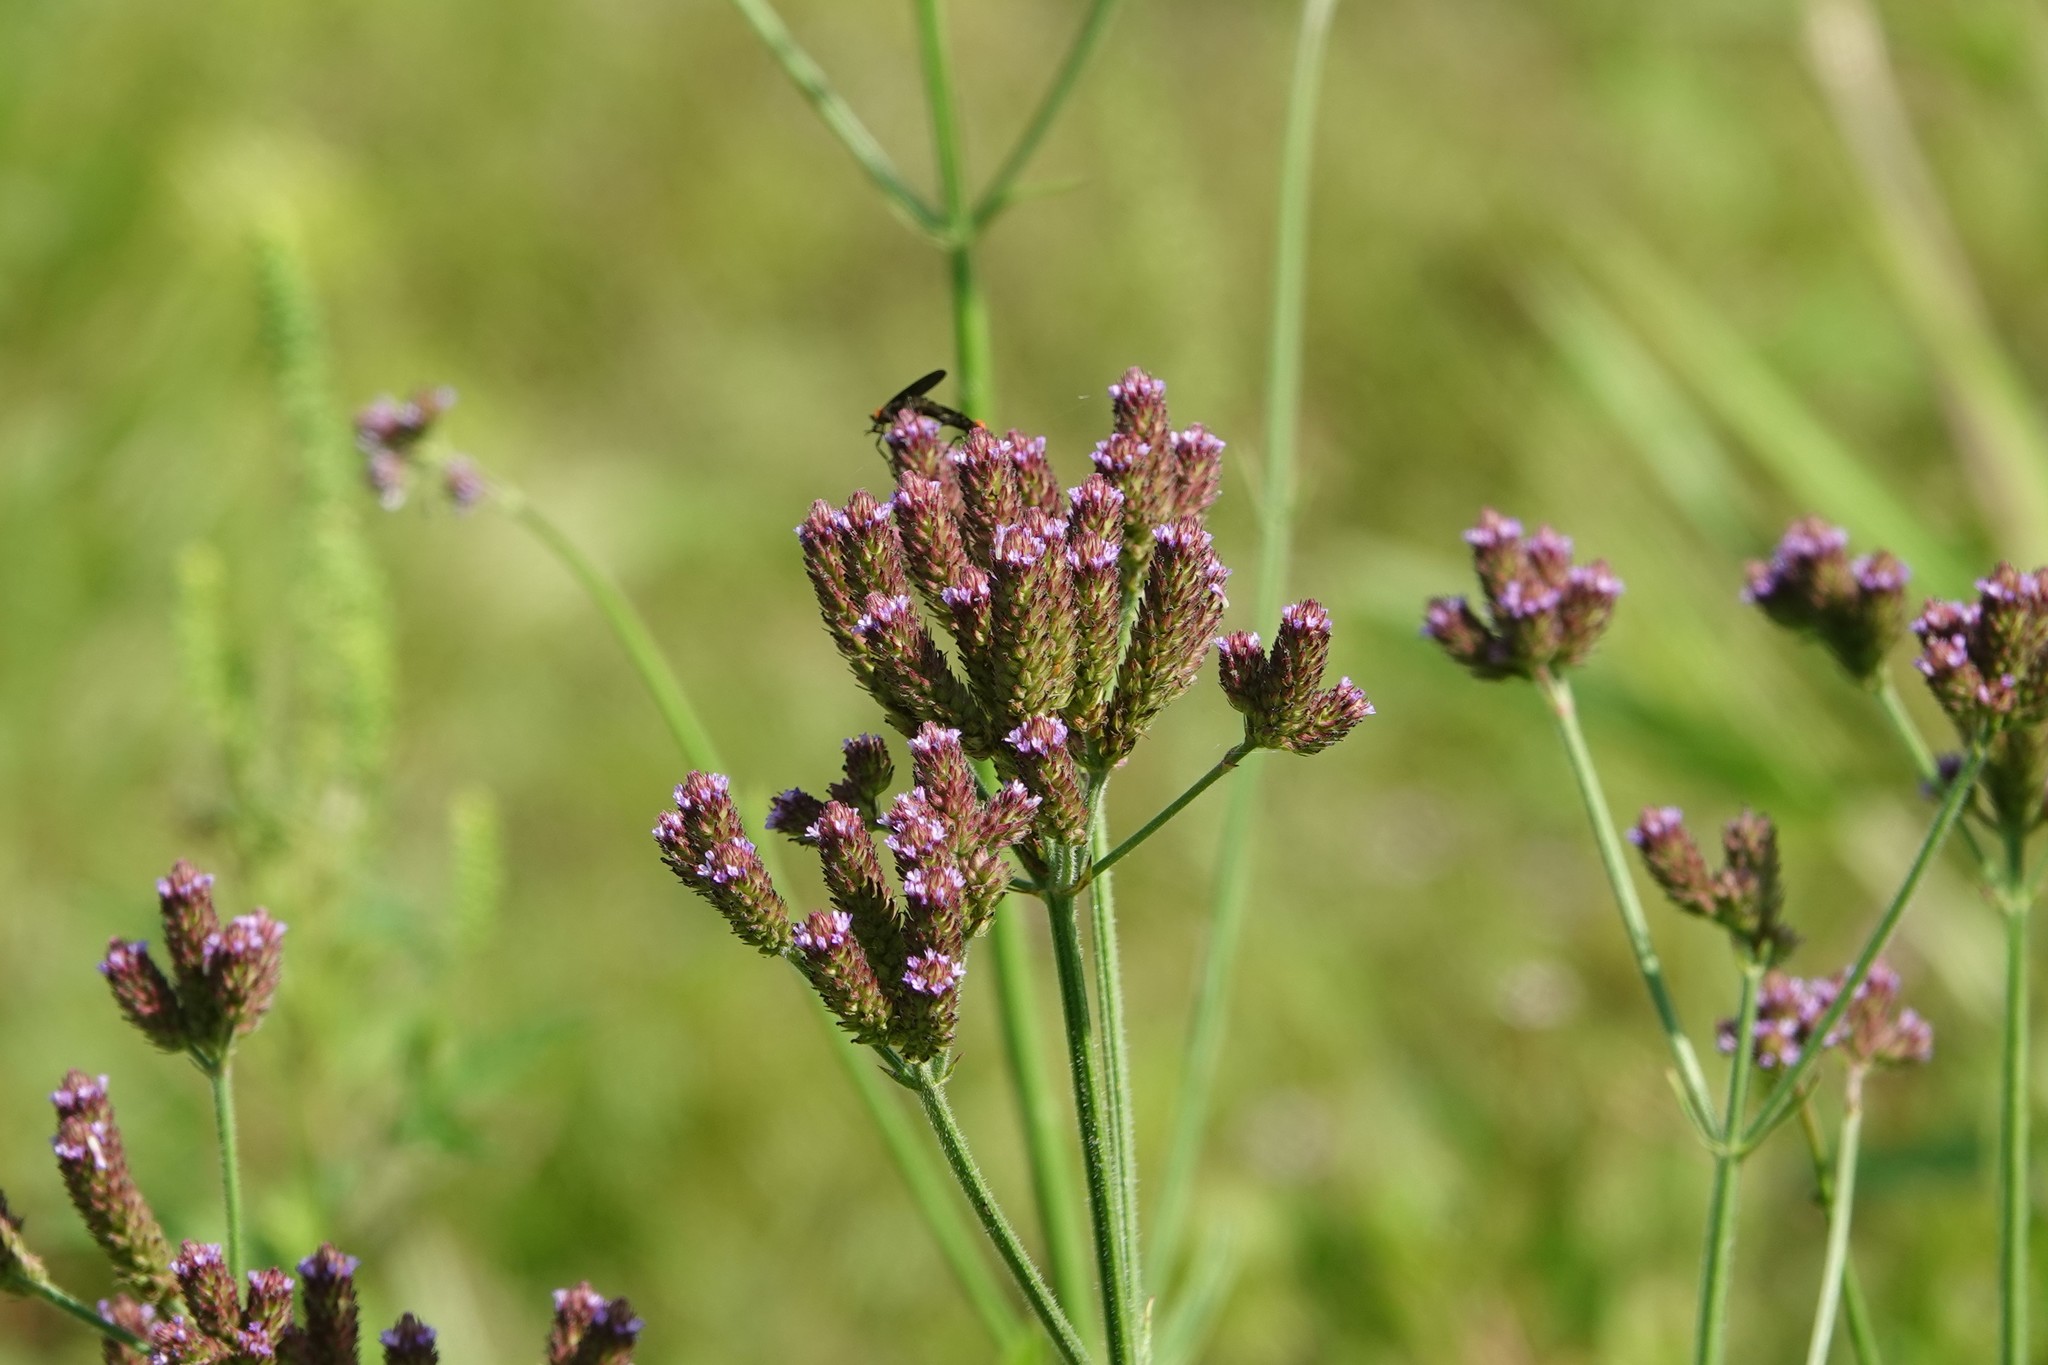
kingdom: Plantae
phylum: Tracheophyta
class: Magnoliopsida
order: Lamiales
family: Verbenaceae
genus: Verbena
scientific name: Verbena brasiliensis
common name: Brazilian vervain
